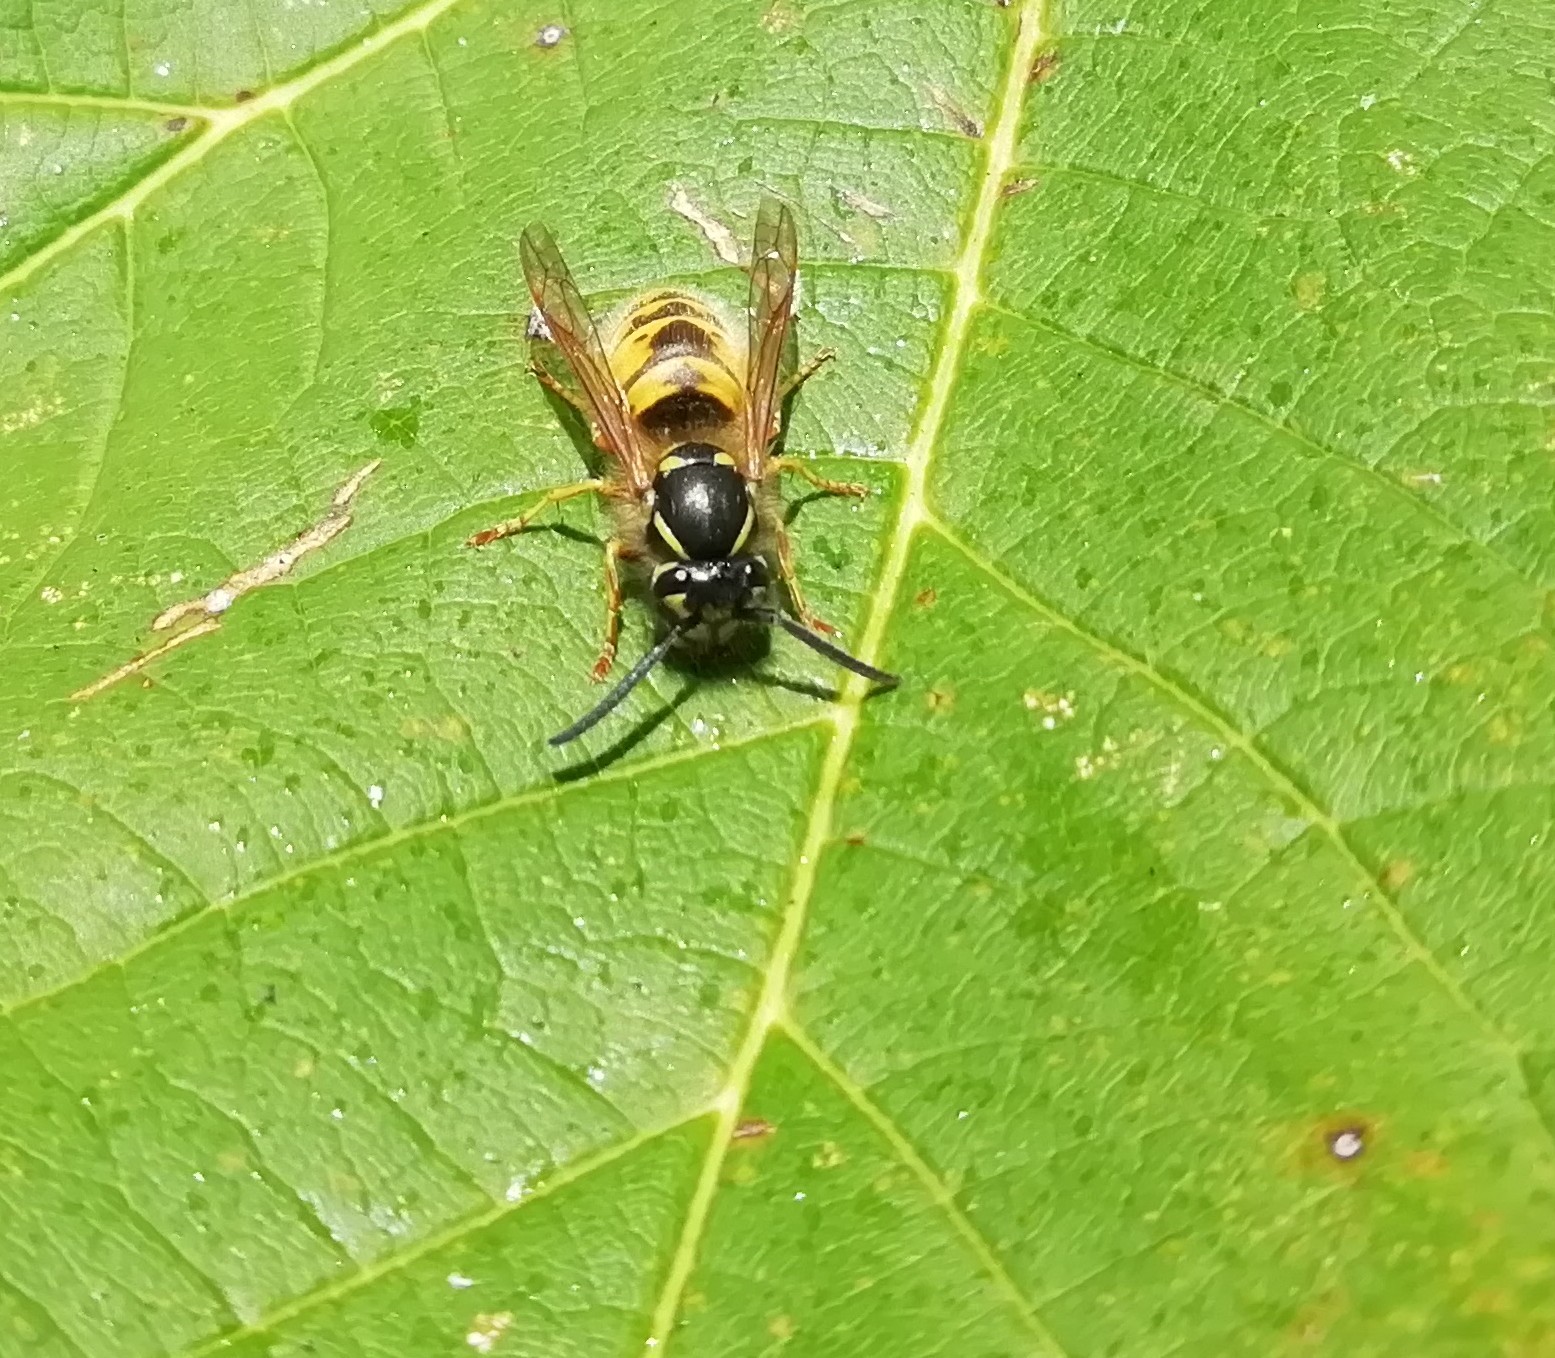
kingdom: Animalia
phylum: Arthropoda
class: Insecta
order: Hymenoptera
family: Vespidae
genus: Vespula
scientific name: Vespula vulgaris
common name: Common wasp
